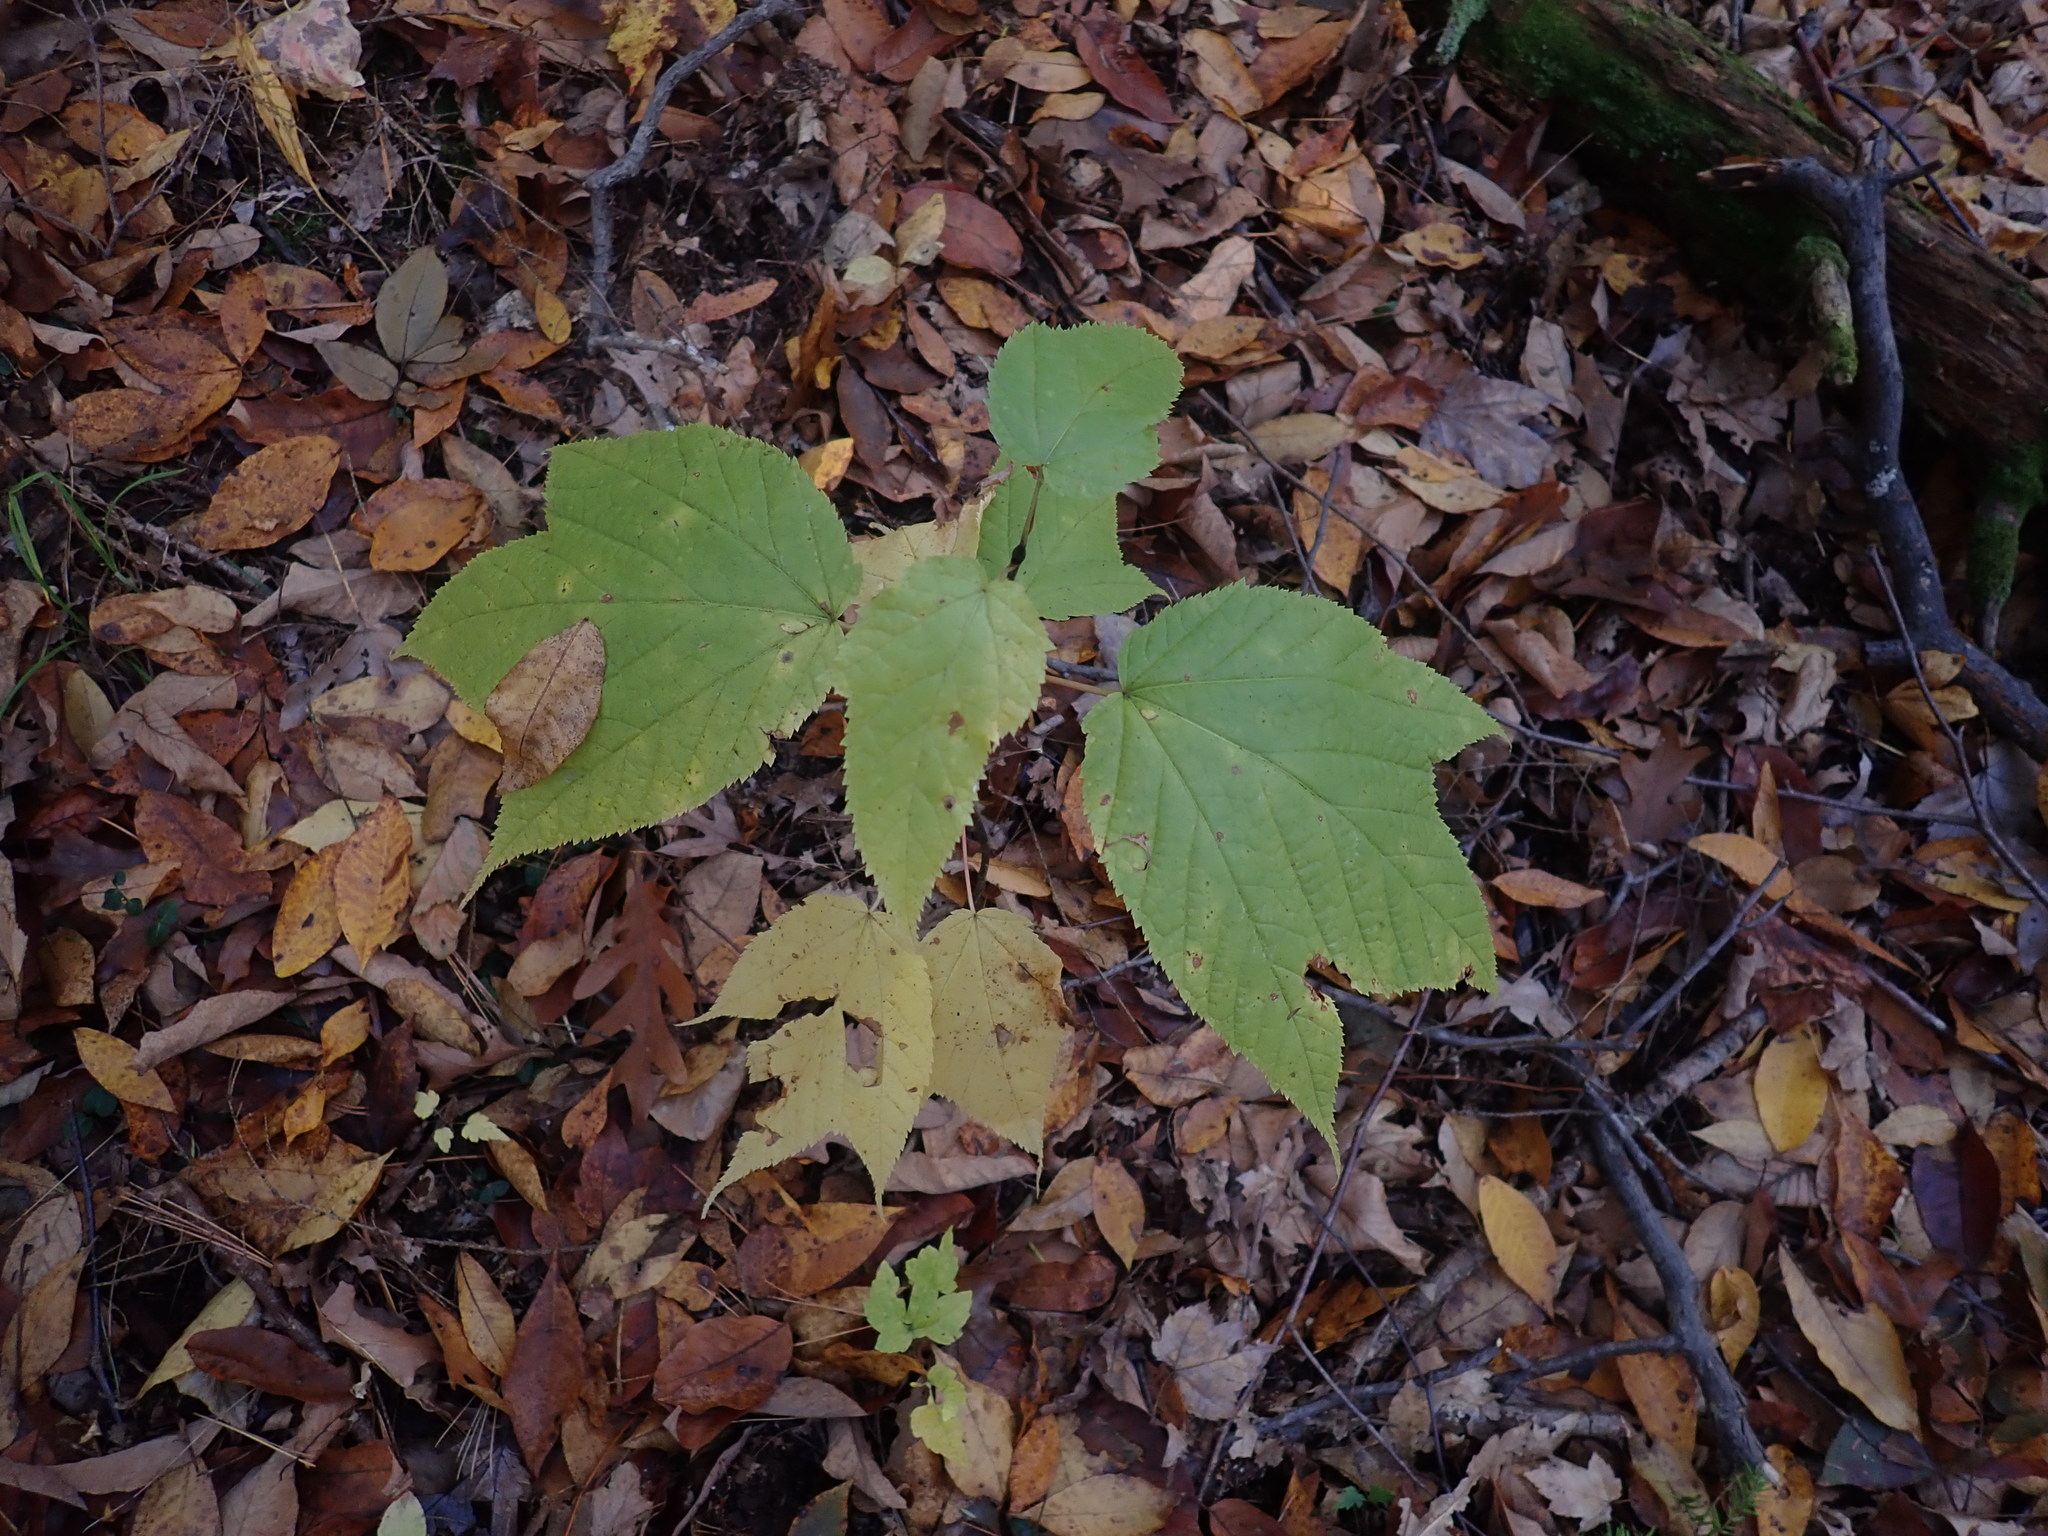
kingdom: Plantae
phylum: Tracheophyta
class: Magnoliopsida
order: Sapindales
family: Sapindaceae
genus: Acer
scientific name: Acer pensylvanicum
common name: Moosewood
